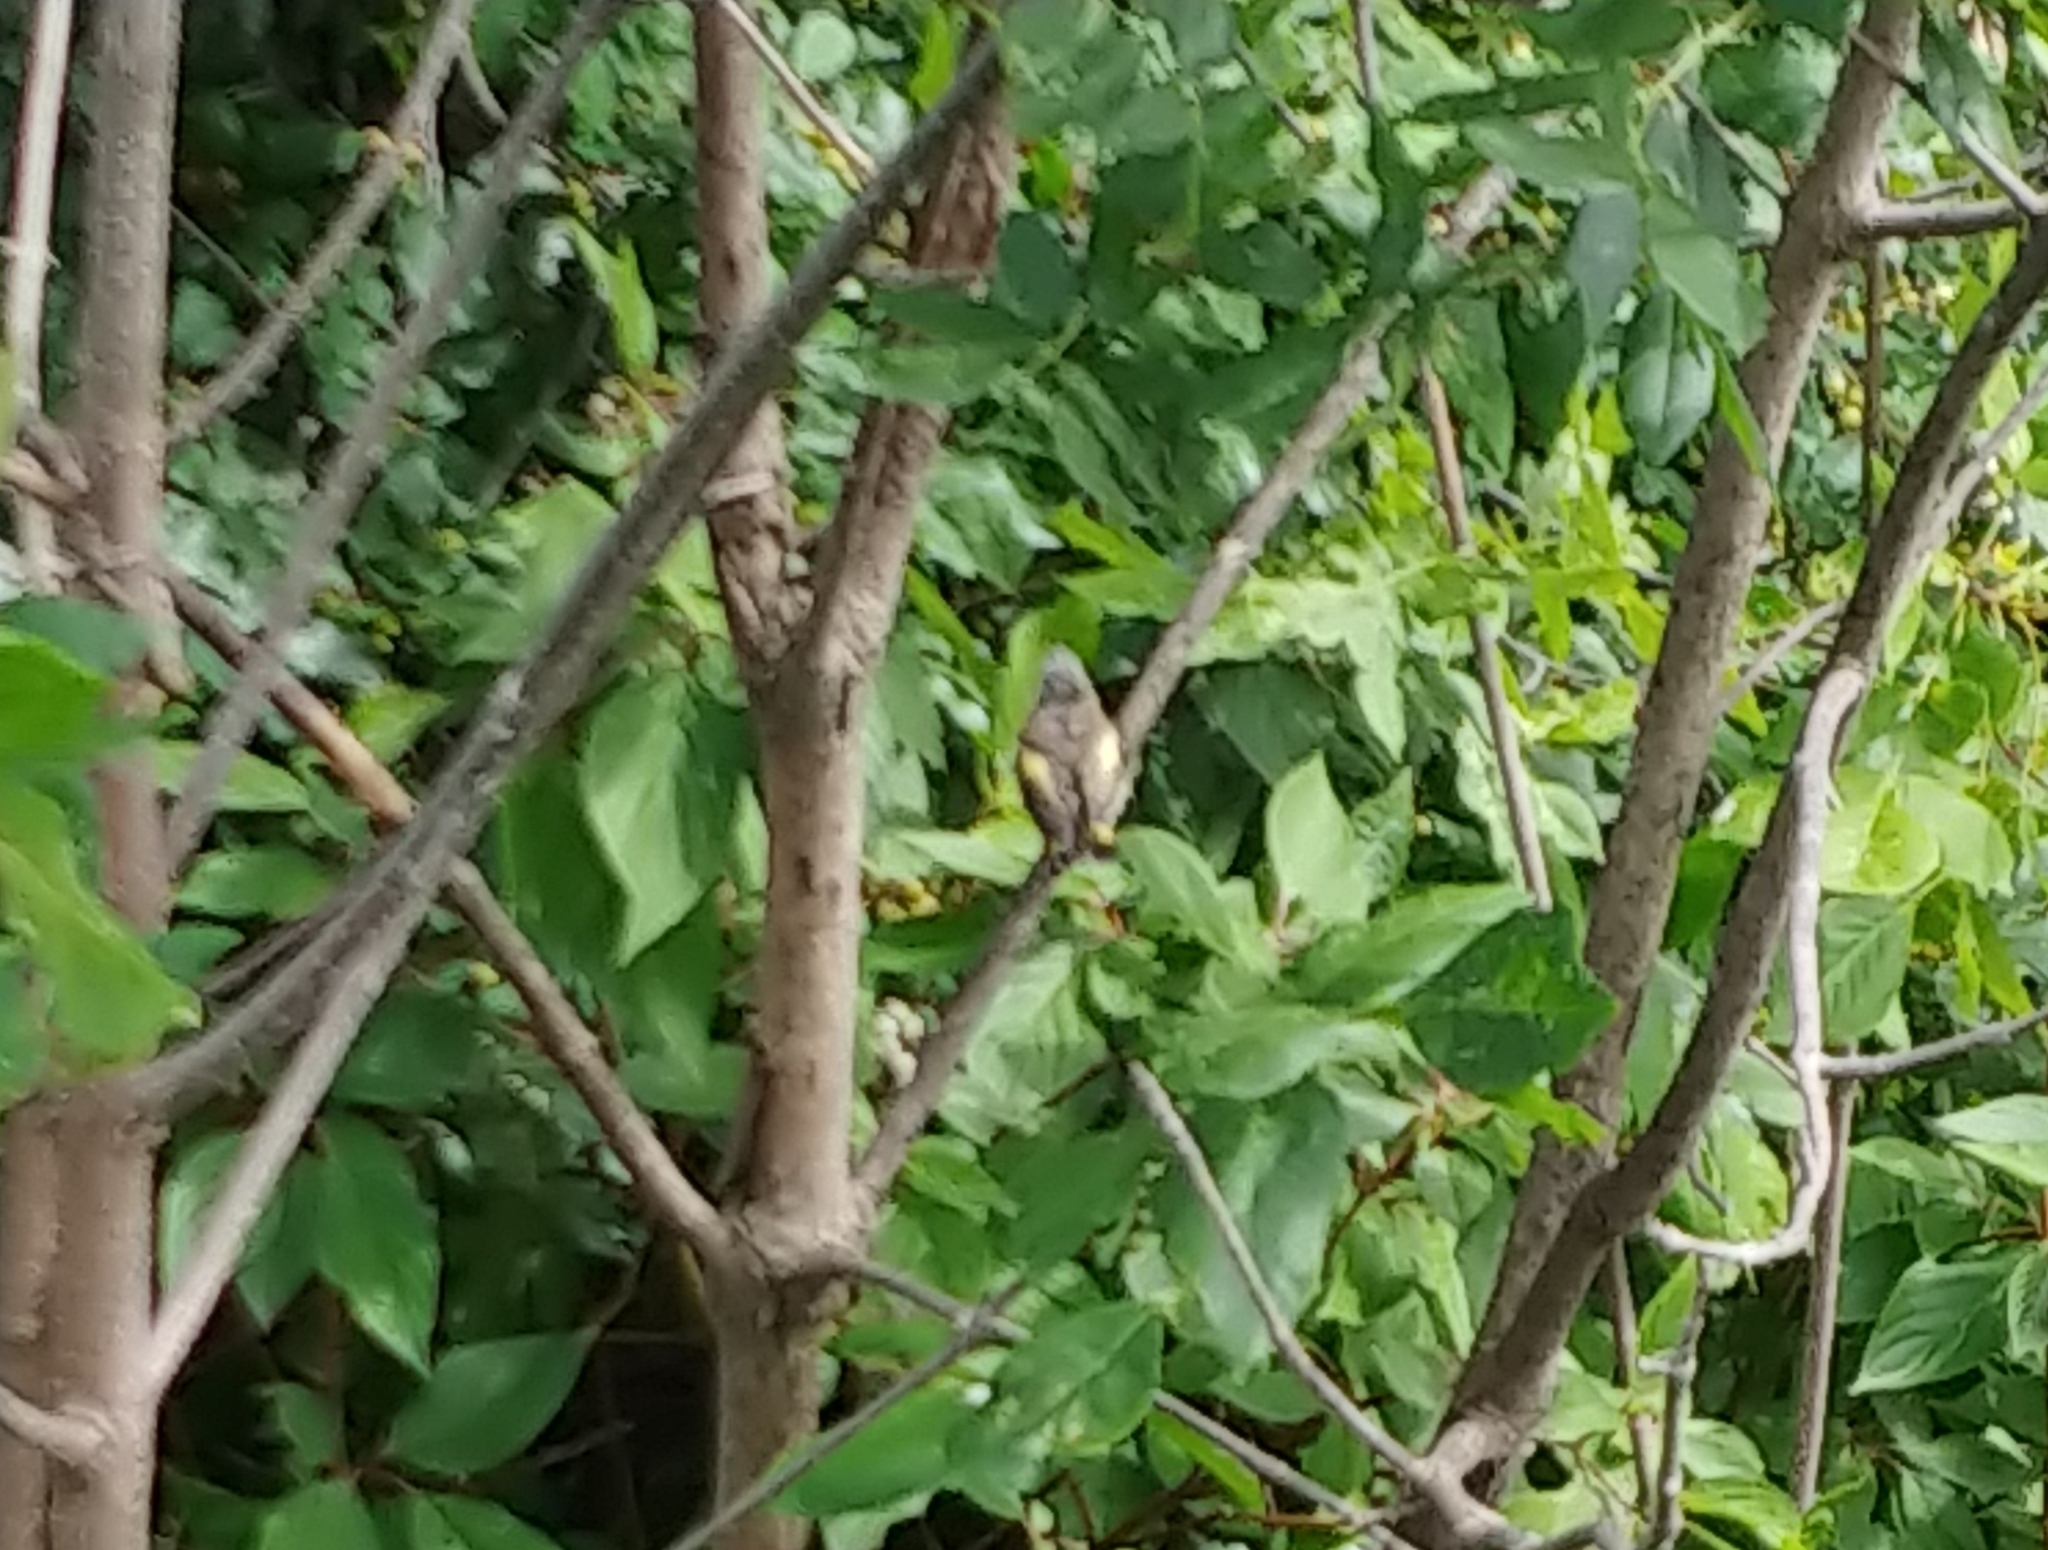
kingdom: Animalia
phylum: Chordata
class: Aves
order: Passeriformes
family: Parulidae
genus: Setophaga
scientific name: Setophaga ruticilla
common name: American redstart
